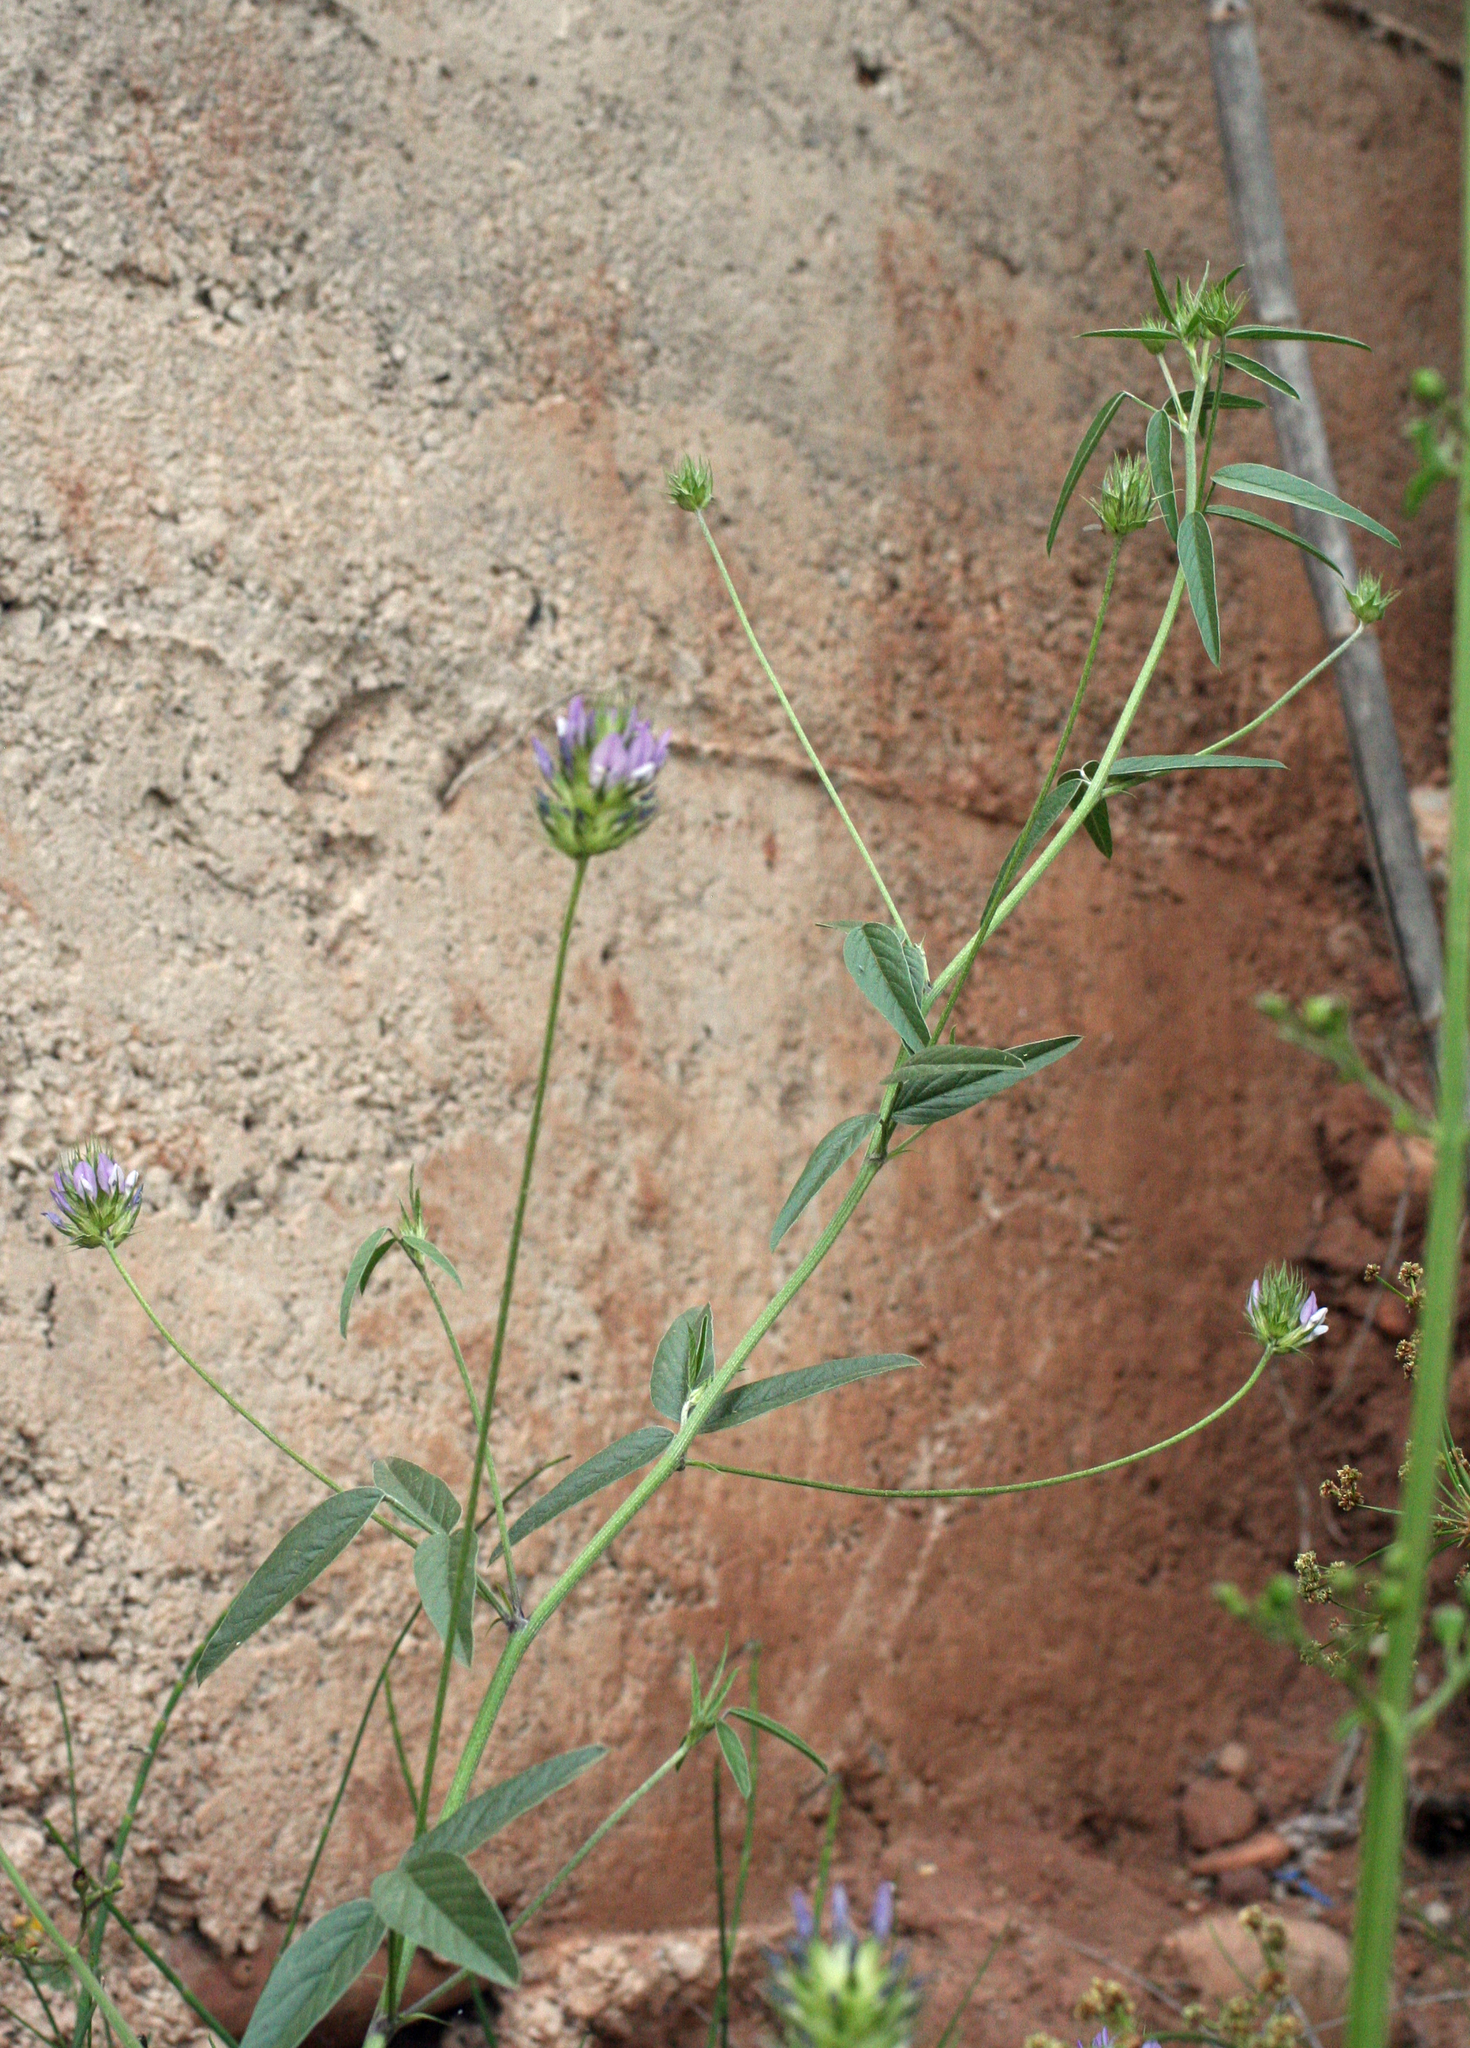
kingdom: Plantae
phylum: Tracheophyta
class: Magnoliopsida
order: Fabales
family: Fabaceae
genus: Bituminaria
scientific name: Bituminaria bituminosa
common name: Arabian pea
